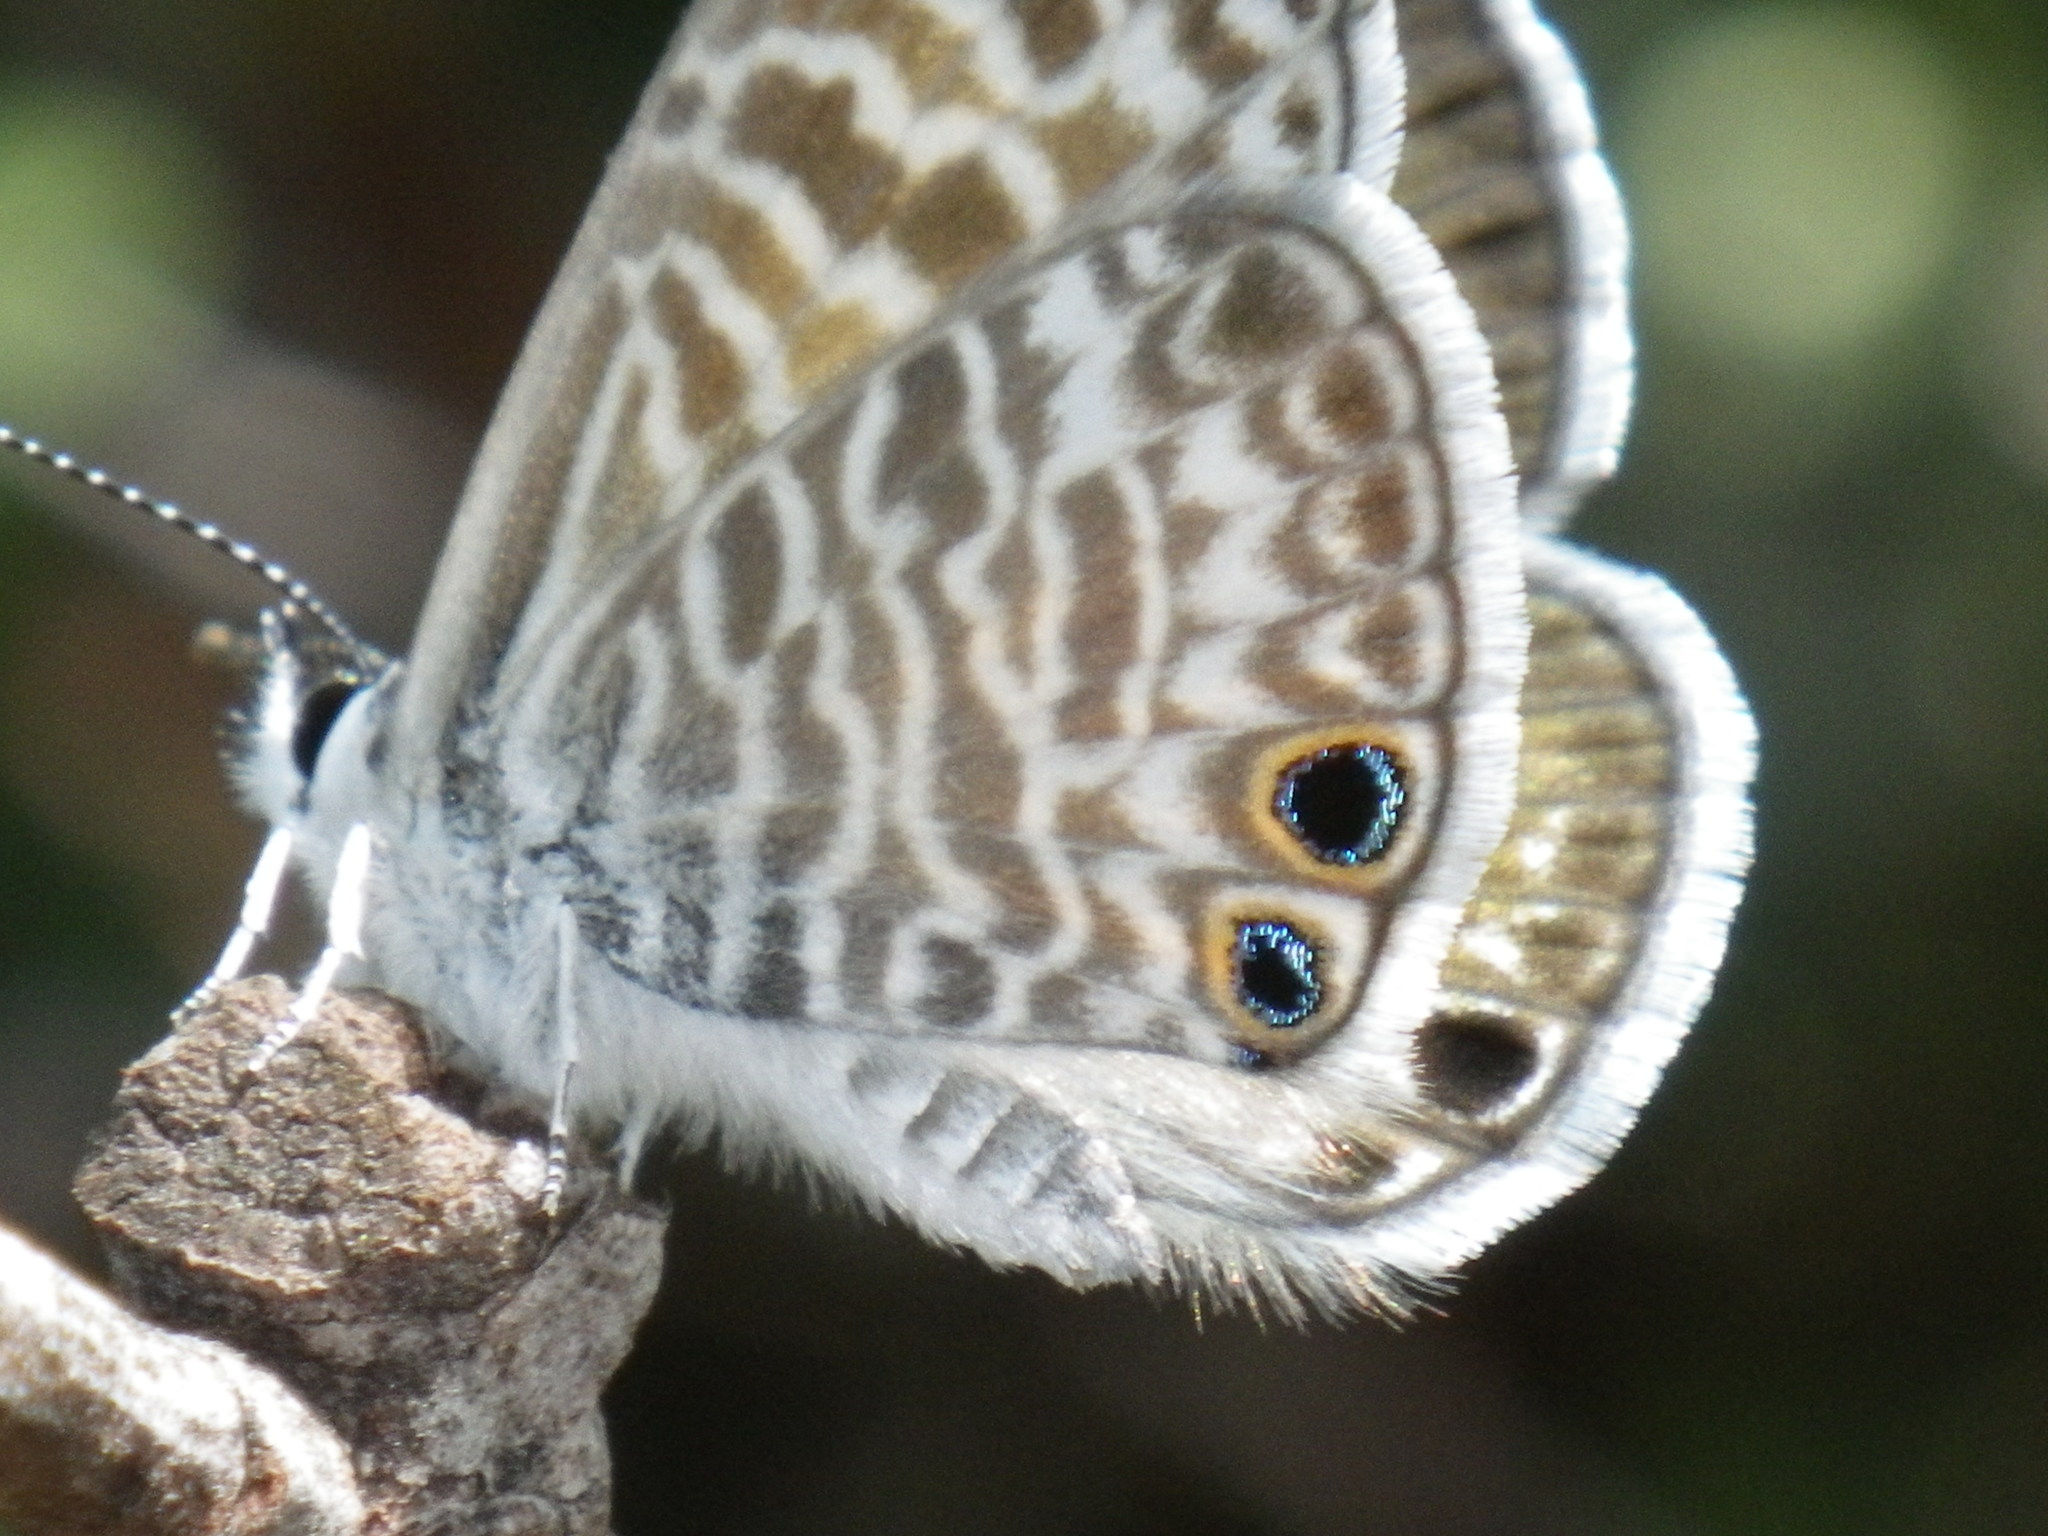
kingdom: Animalia
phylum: Arthropoda
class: Insecta
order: Lepidoptera
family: Lycaenidae
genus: Leptotes
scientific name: Leptotes marina
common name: Marine blue
